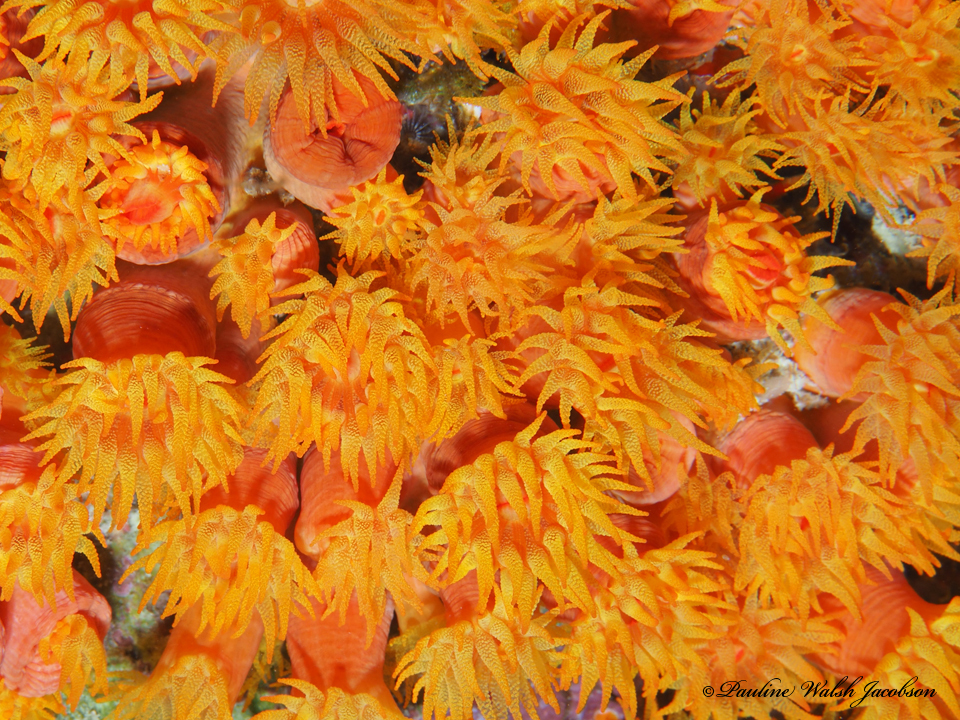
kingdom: Animalia
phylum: Cnidaria
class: Anthozoa
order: Scleractinia
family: Dendrophylliidae
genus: Tubastraea
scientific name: Tubastraea coccinea
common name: Orange cup coral
